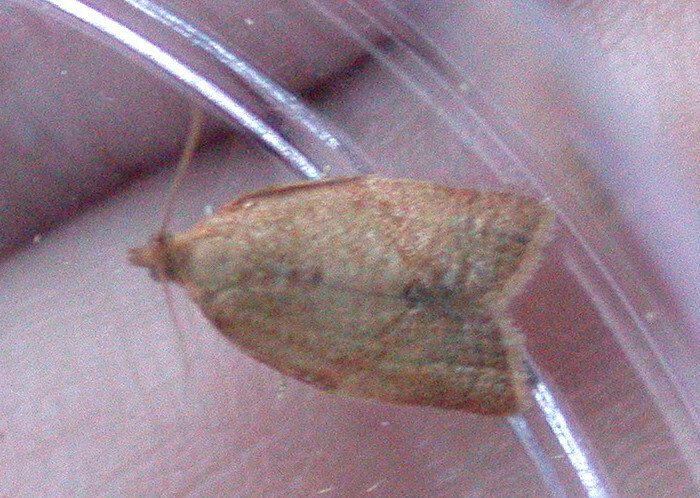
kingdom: Animalia
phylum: Arthropoda
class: Insecta
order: Lepidoptera
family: Tortricidae
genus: Clepsis
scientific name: Clepsis consimilana
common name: Privet tortrix
